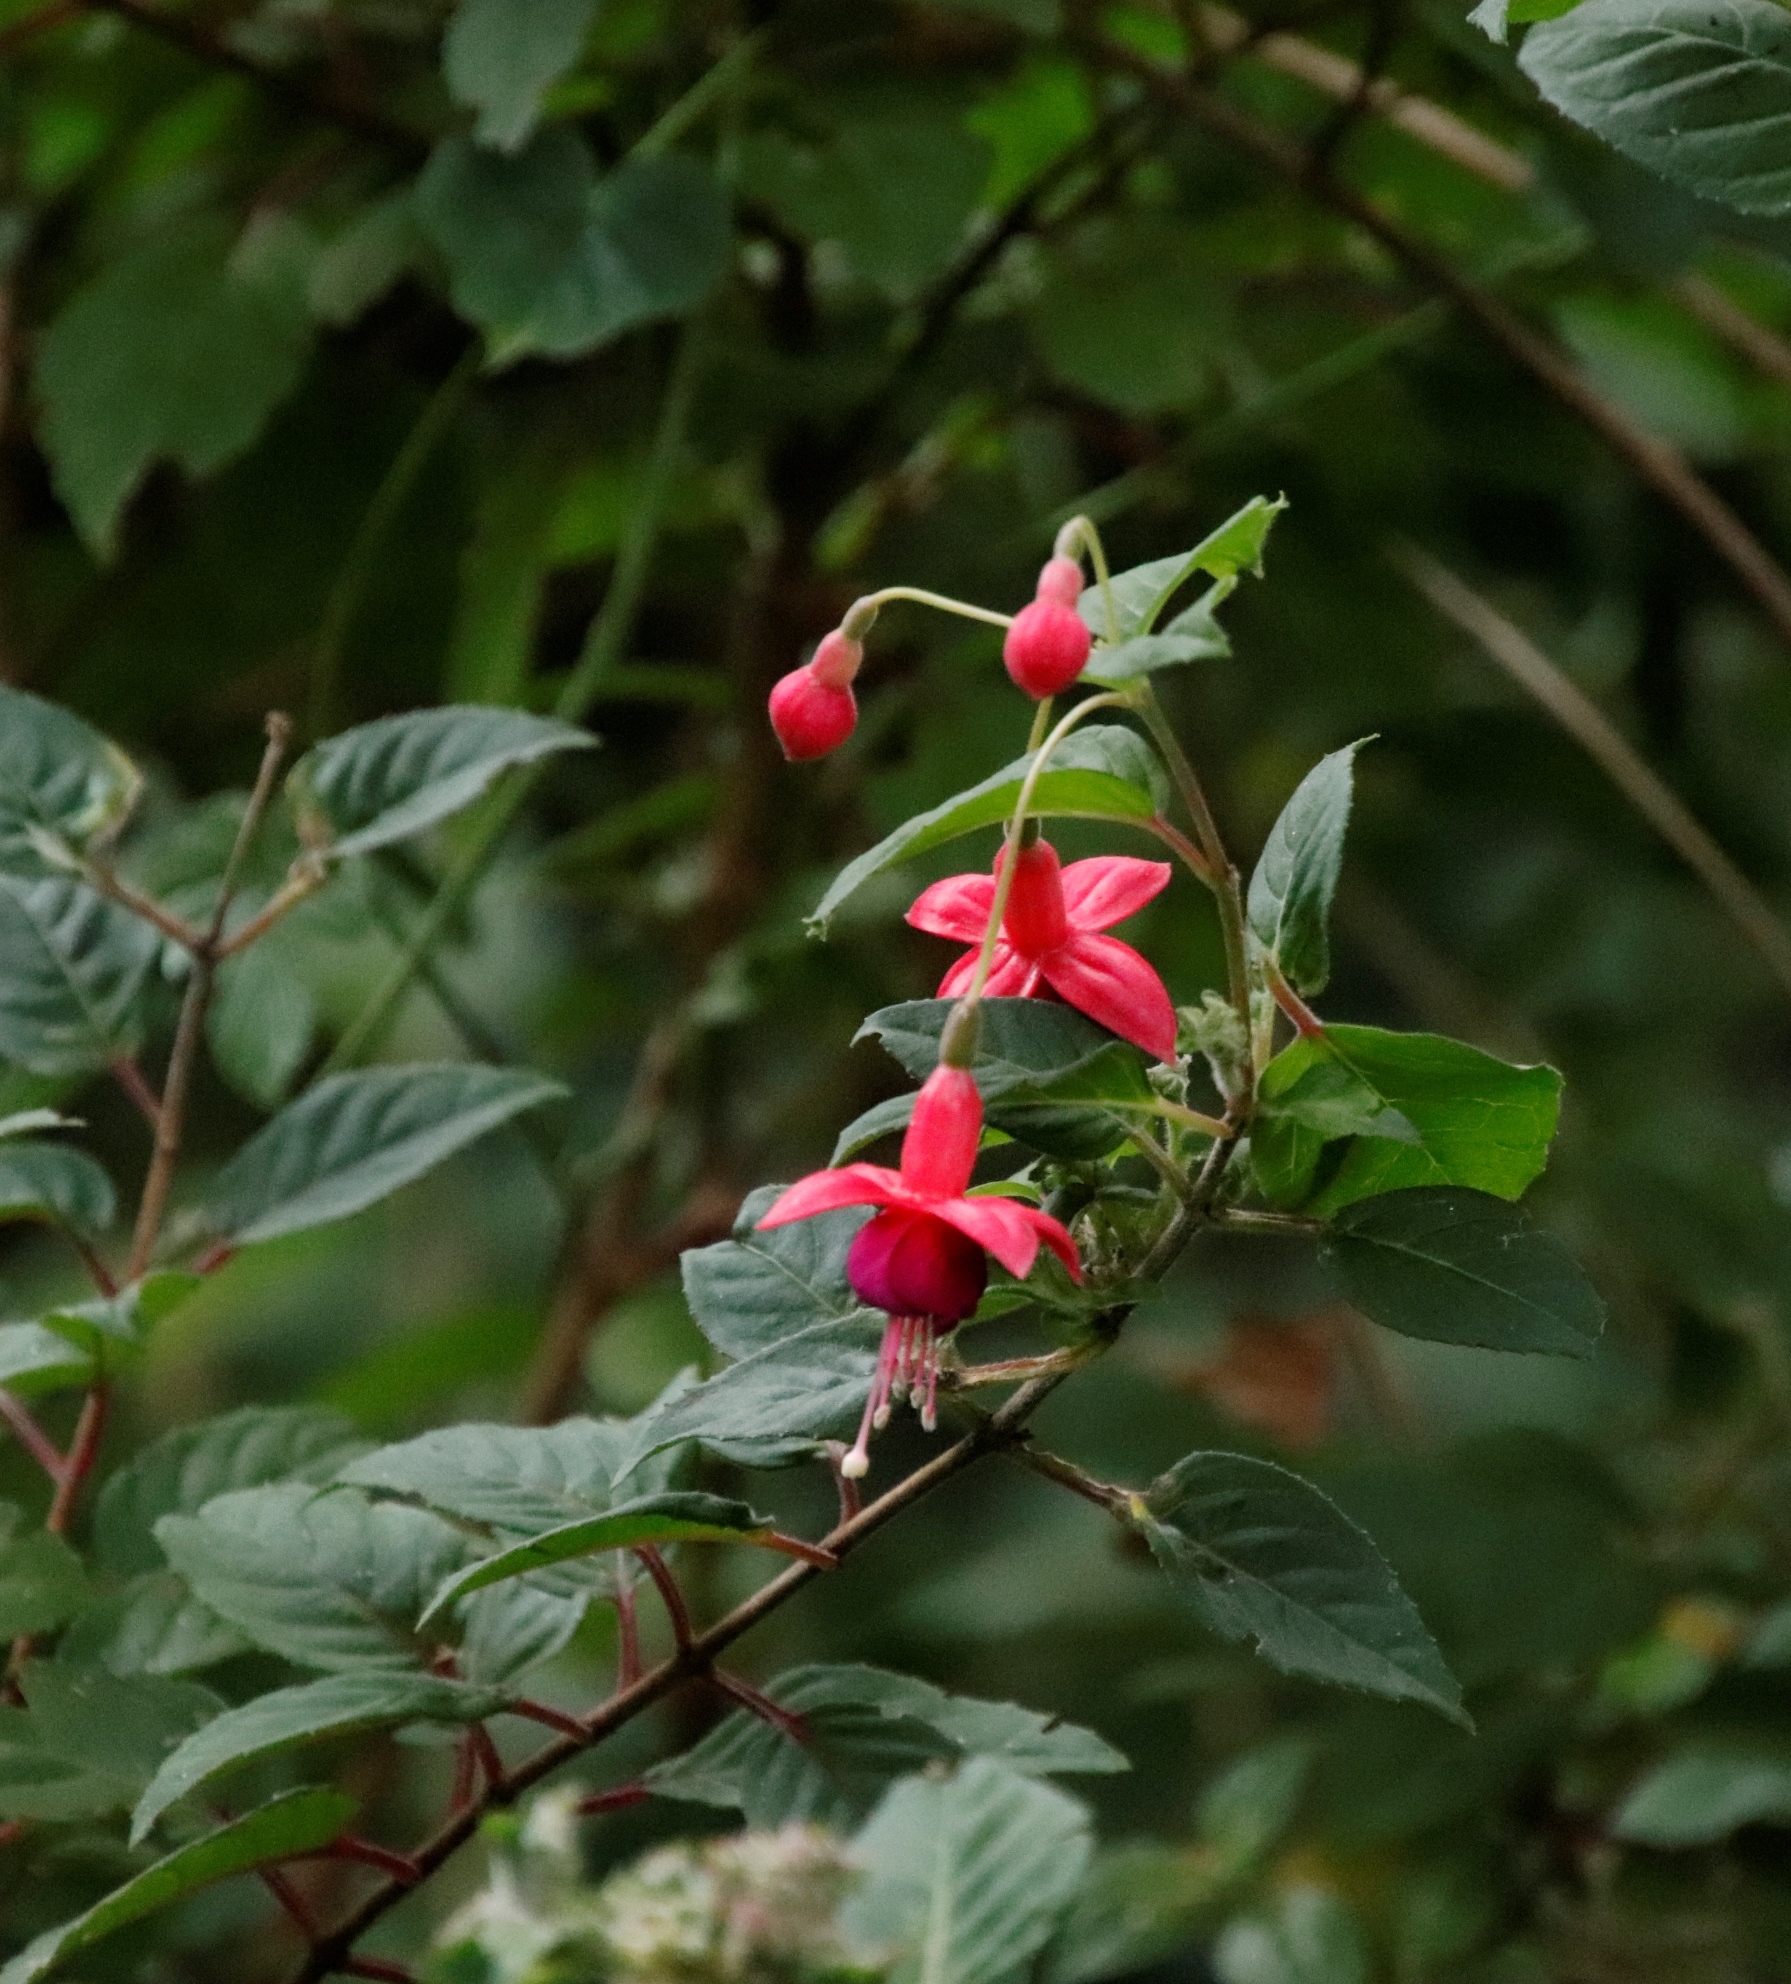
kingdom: Plantae
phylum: Tracheophyta
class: Magnoliopsida
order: Myrtales
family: Onagraceae
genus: Fuchsia
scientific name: Fuchsia hybrida
